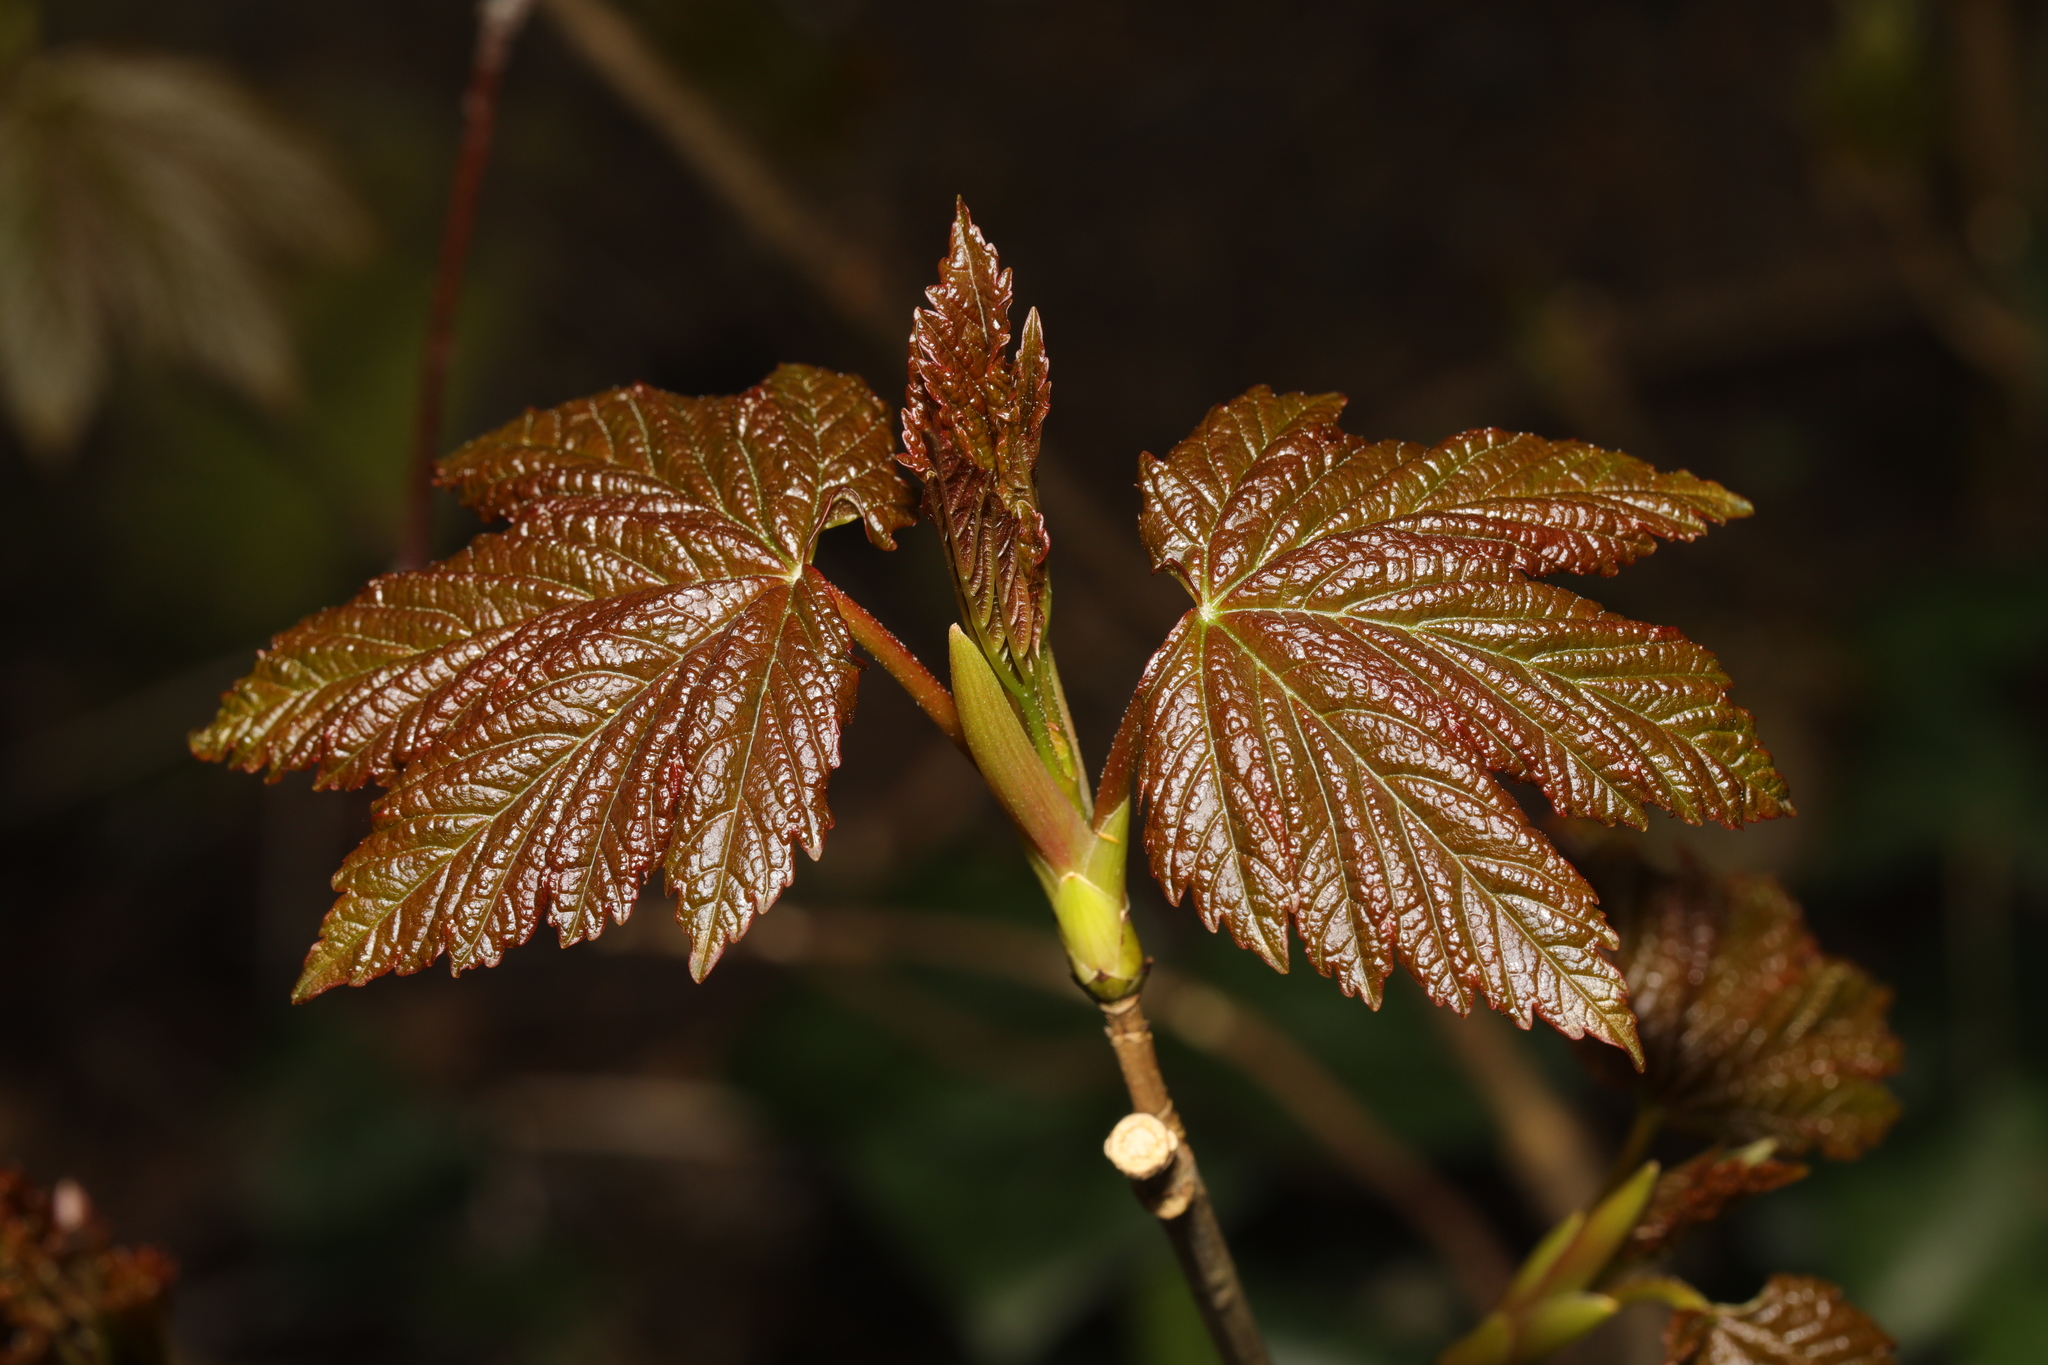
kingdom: Plantae
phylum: Tracheophyta
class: Magnoliopsida
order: Sapindales
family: Sapindaceae
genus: Acer
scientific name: Acer pseudoplatanus
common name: Sycamore
